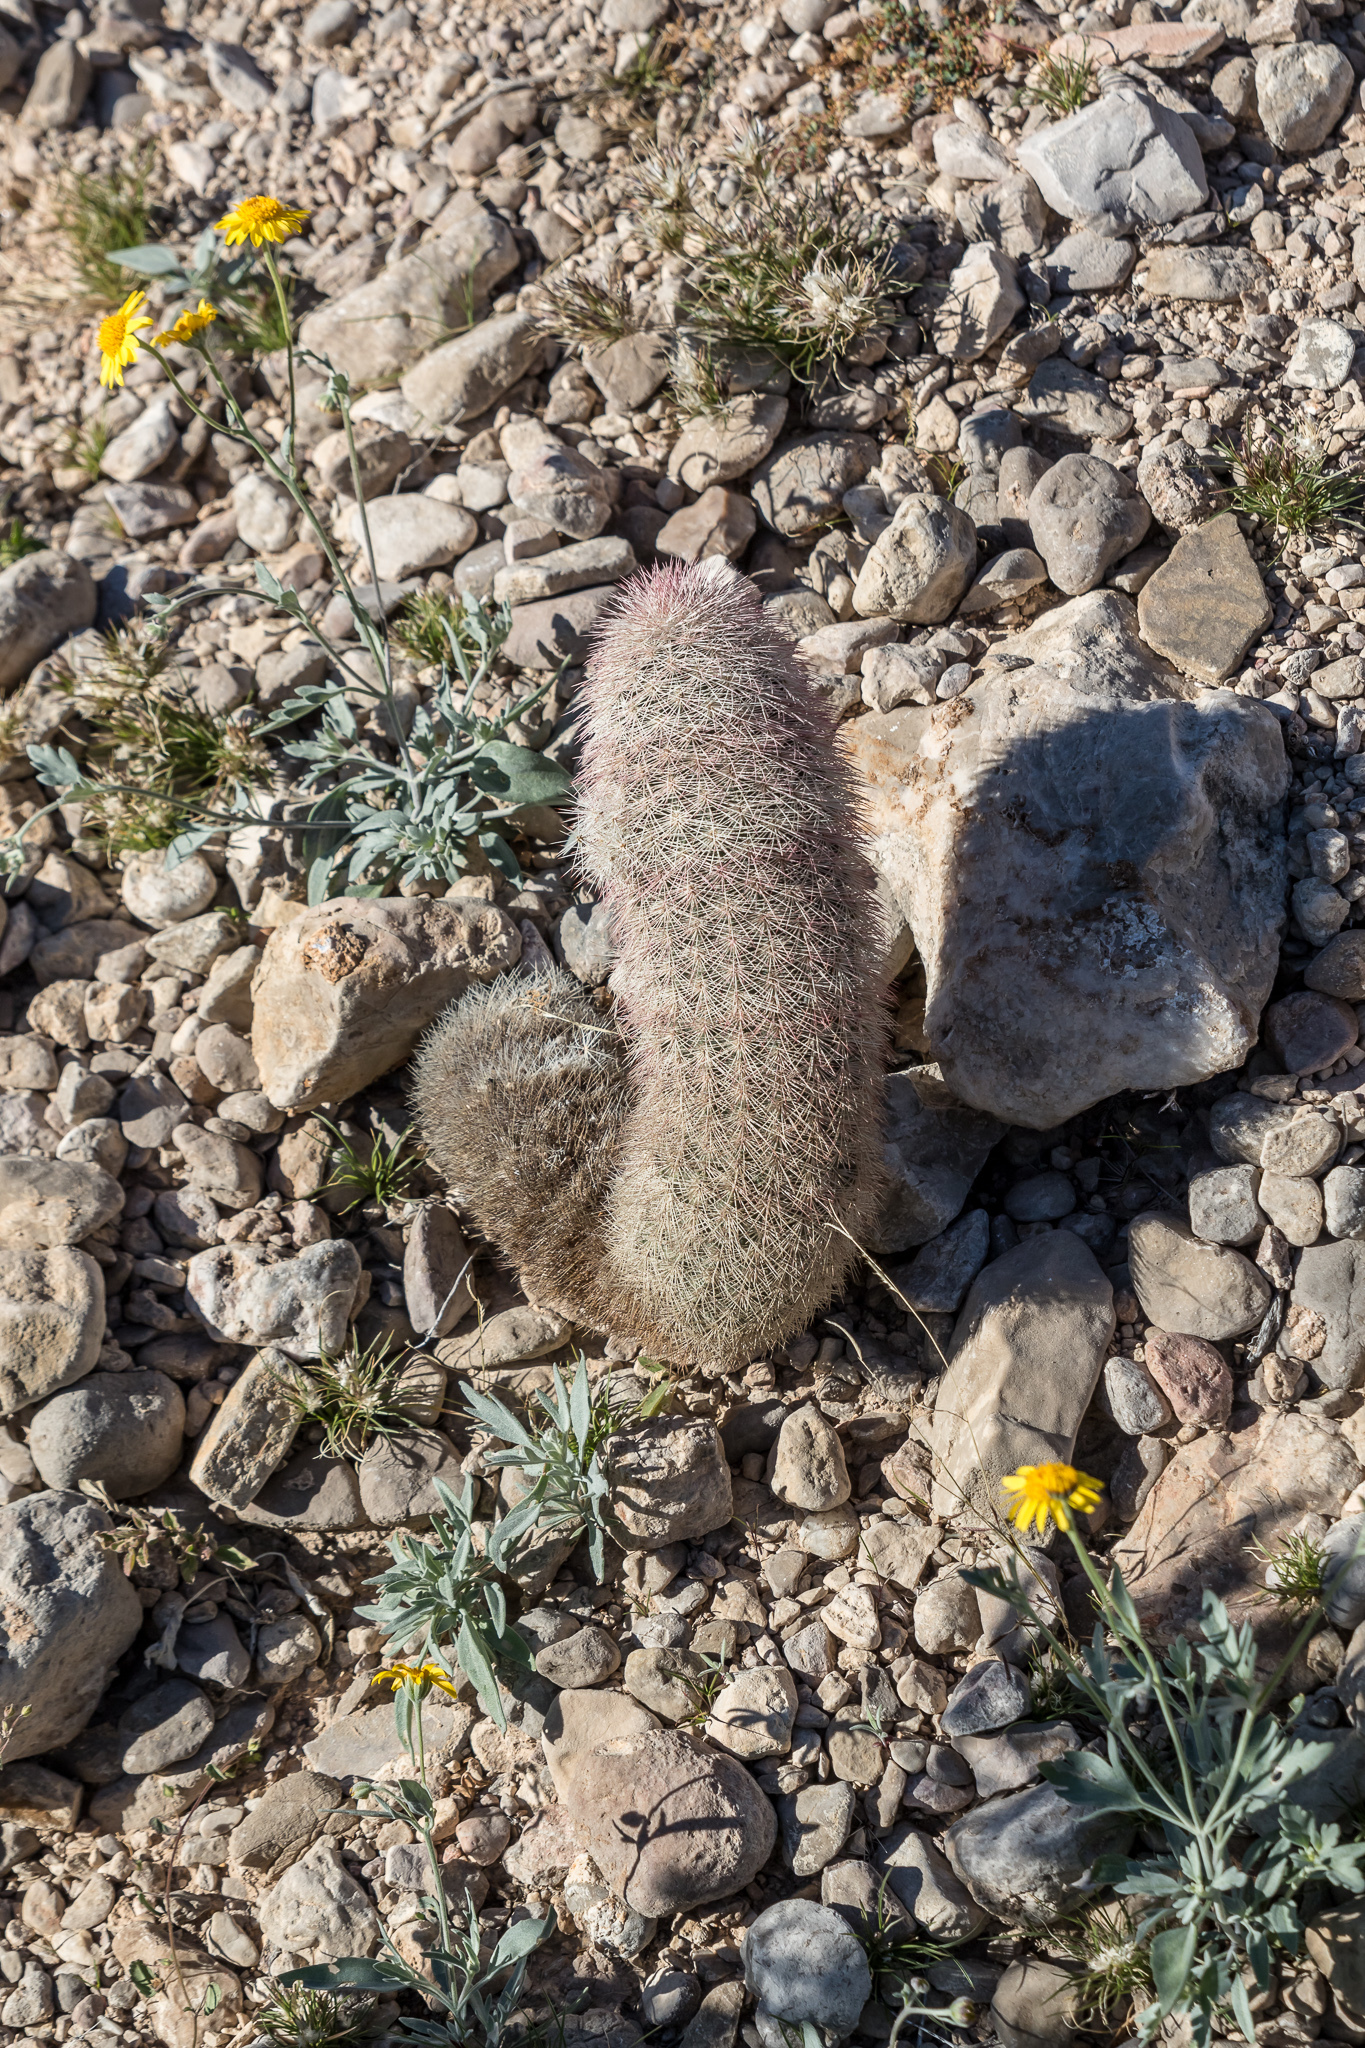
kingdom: Plantae
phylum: Tracheophyta
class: Magnoliopsida
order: Caryophyllales
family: Cactaceae
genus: Echinocereus
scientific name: Echinocereus dasyacanthus
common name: Spiny hedgehog cactus
